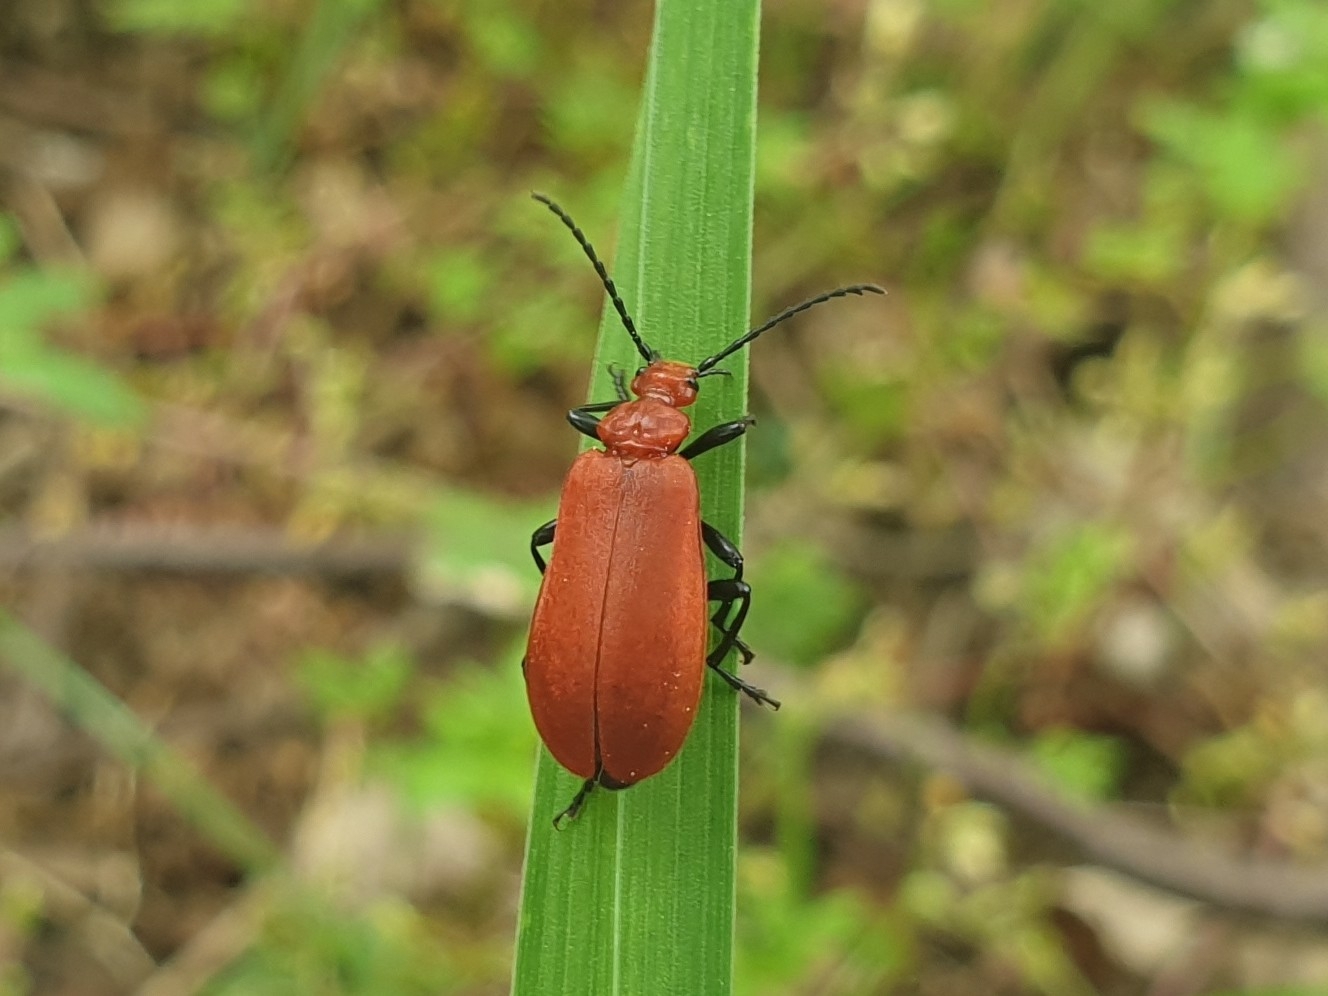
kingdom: Animalia
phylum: Arthropoda
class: Insecta
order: Coleoptera
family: Pyrochroidae
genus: Pyrochroa
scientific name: Pyrochroa serraticornis
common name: Red-headed cardinal beetle
